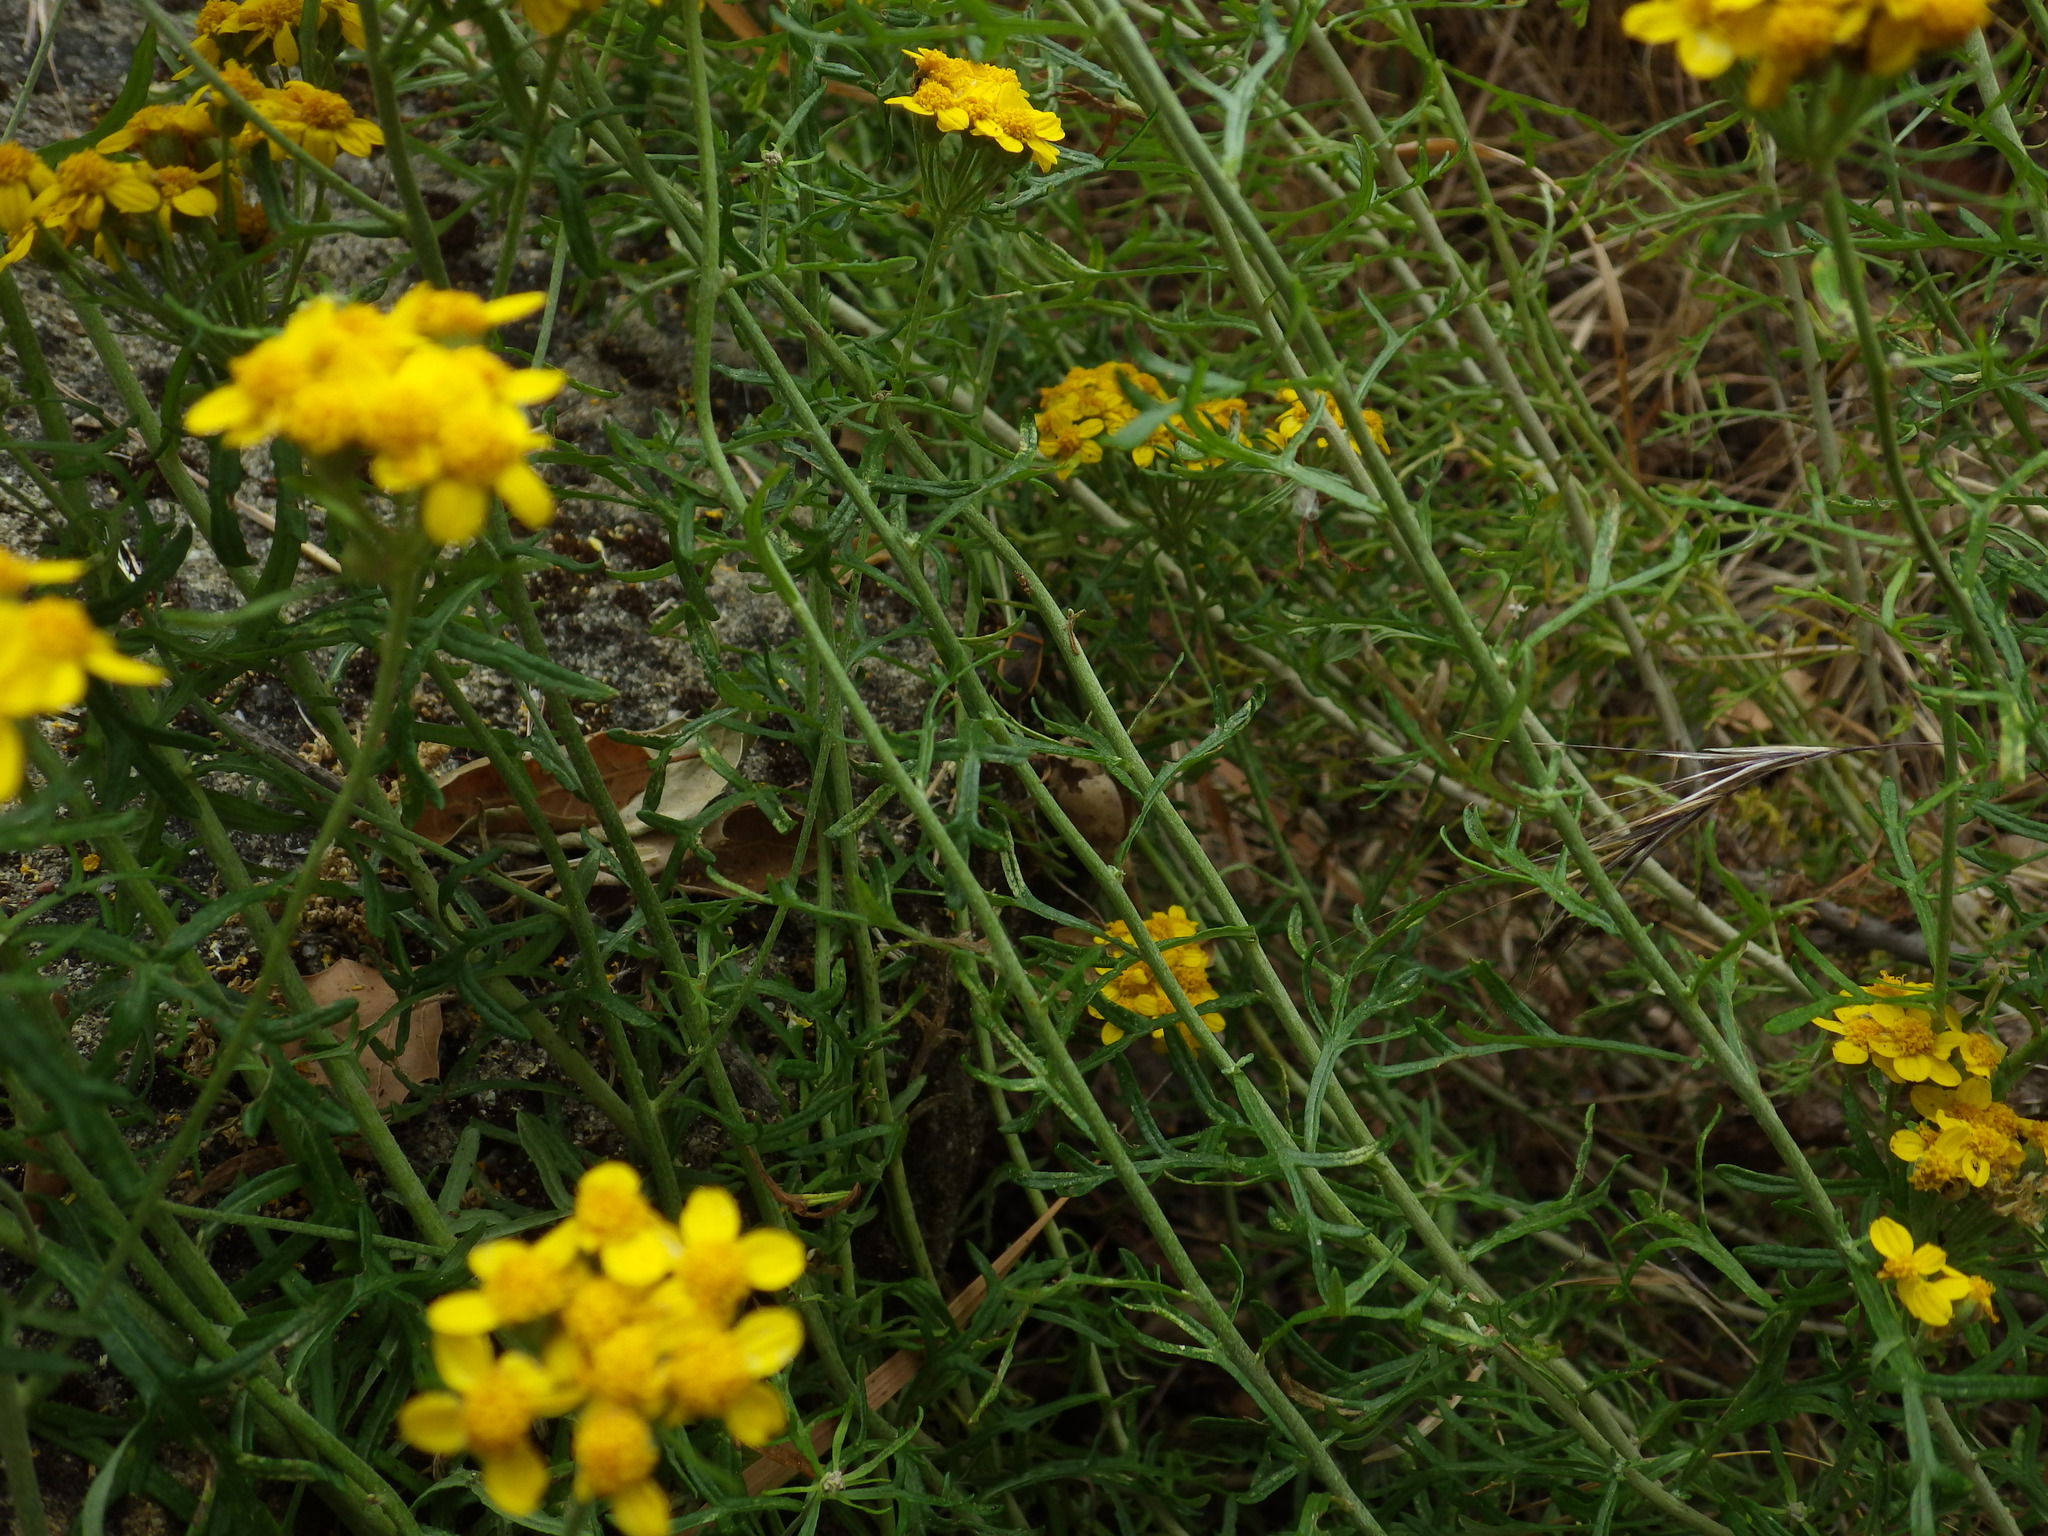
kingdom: Plantae
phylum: Tracheophyta
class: Magnoliopsida
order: Asterales
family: Asteraceae
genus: Eriophyllum
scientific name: Eriophyllum confertiflorum
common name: Golden-yarrow
